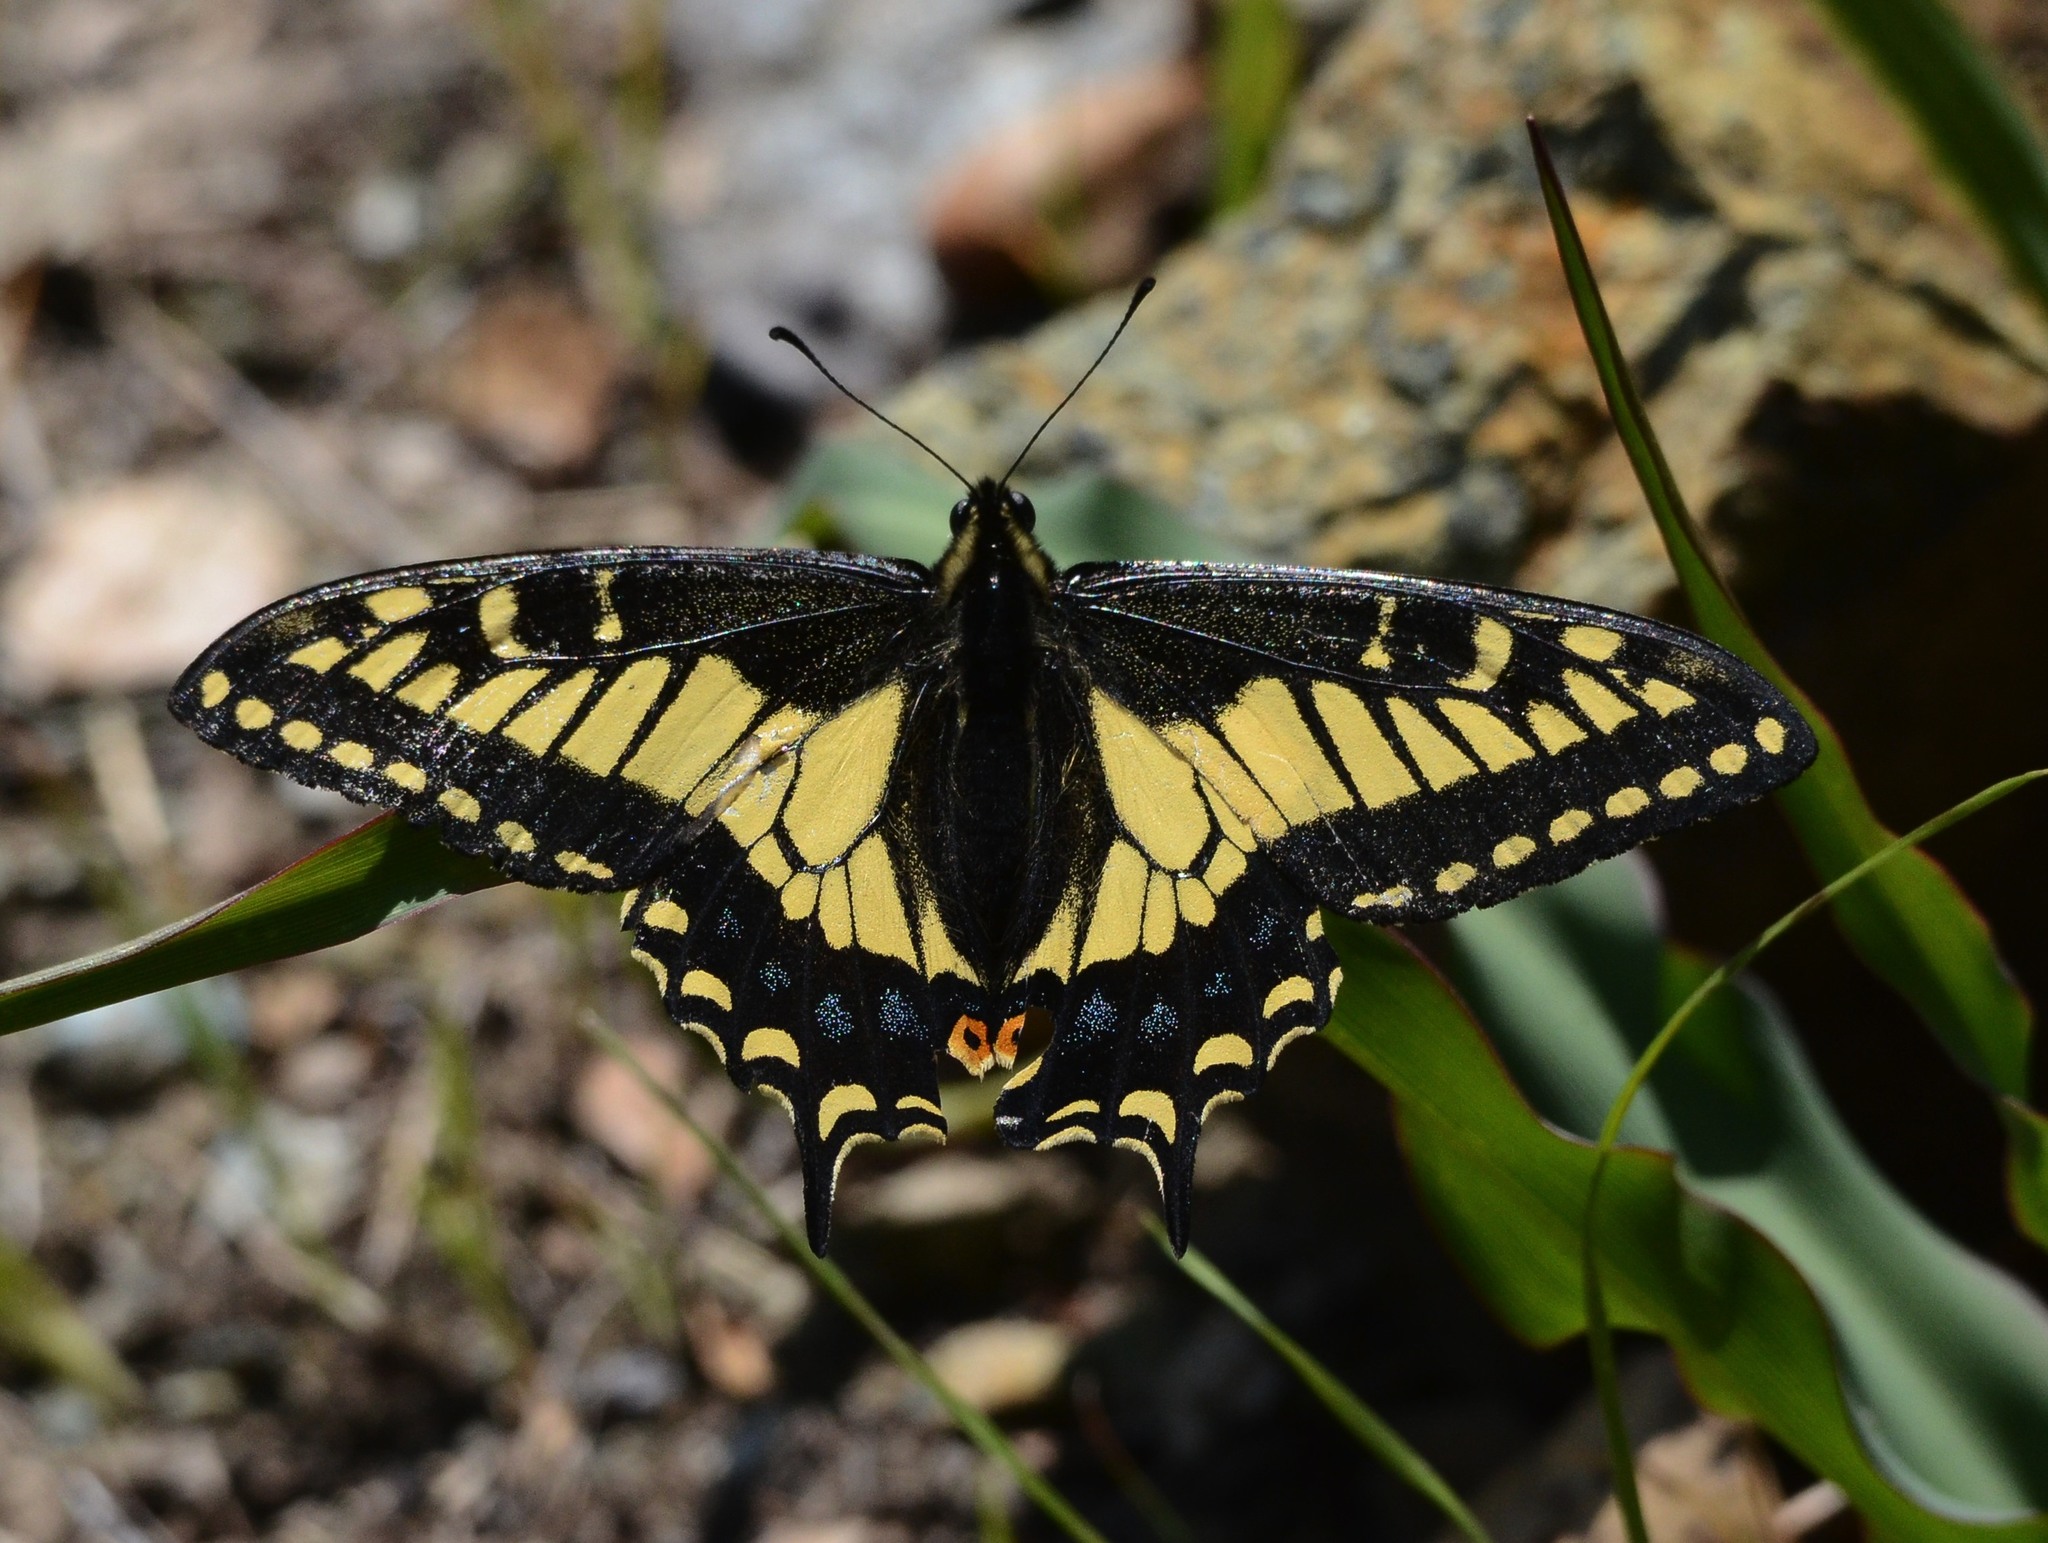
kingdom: Animalia
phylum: Arthropoda
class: Insecta
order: Lepidoptera
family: Papilionidae
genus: Papilio
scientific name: Papilio zelicaon
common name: Anise swallowtail
